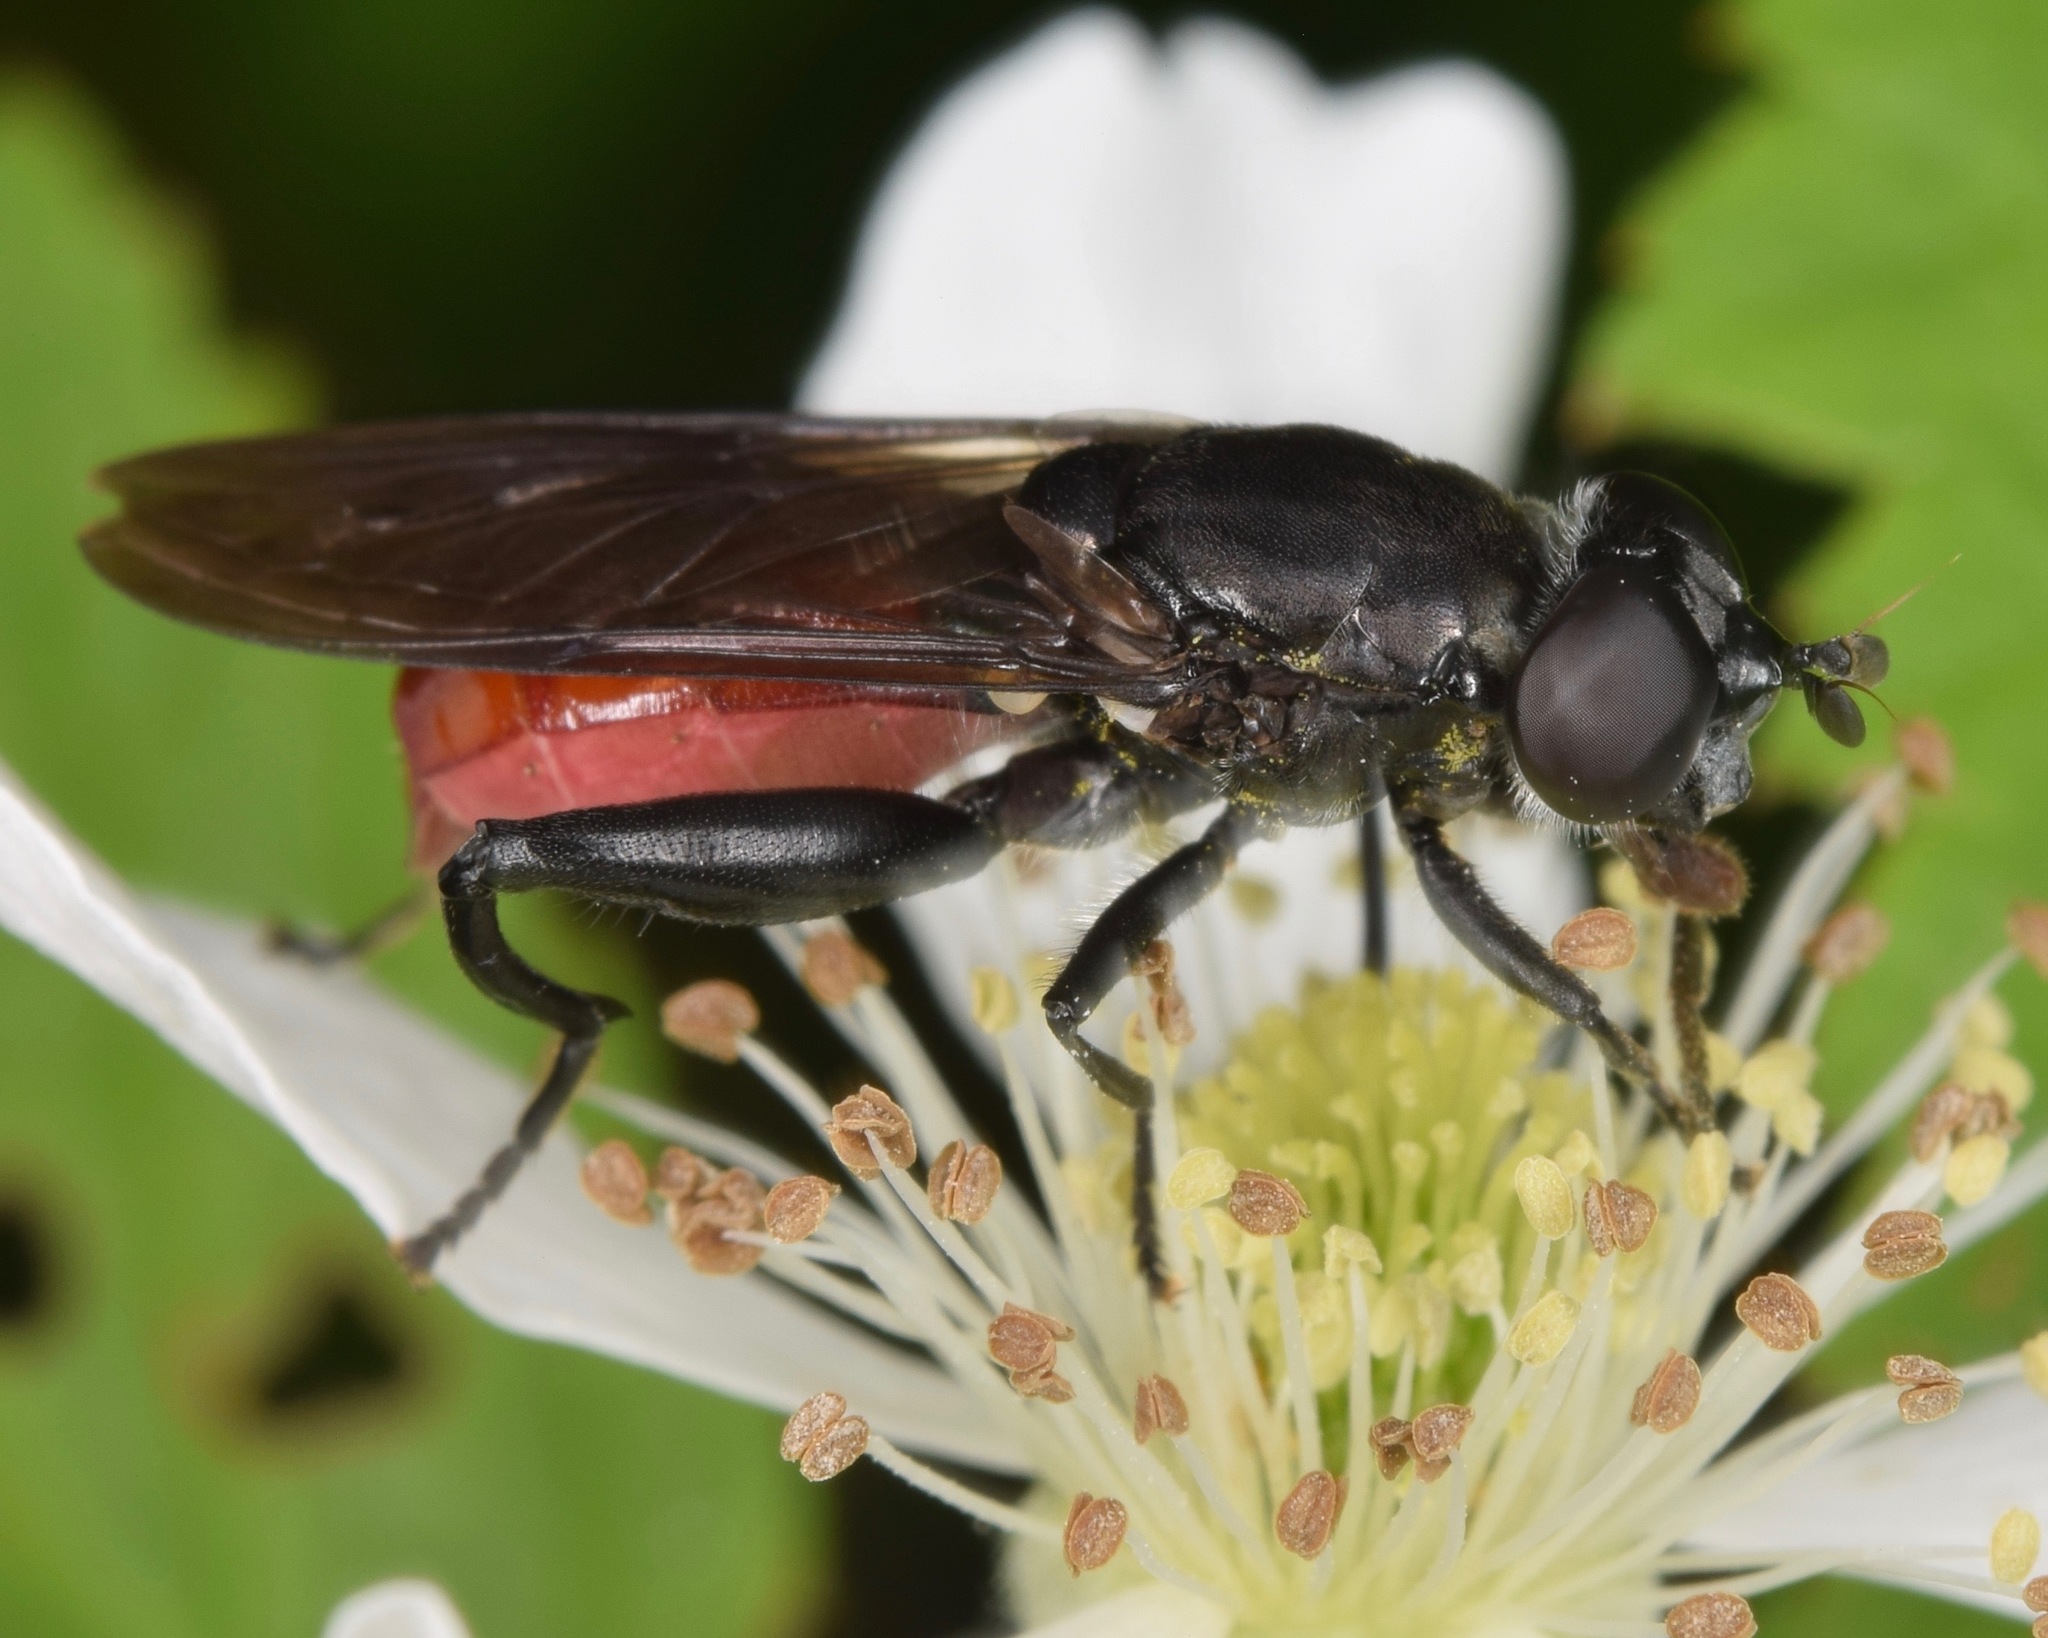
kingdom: Animalia
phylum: Arthropoda
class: Insecta
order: Diptera
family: Syrphidae
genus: Chalcosyrphus
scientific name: Chalcosyrphus piger
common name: Short-haired leafwalker
